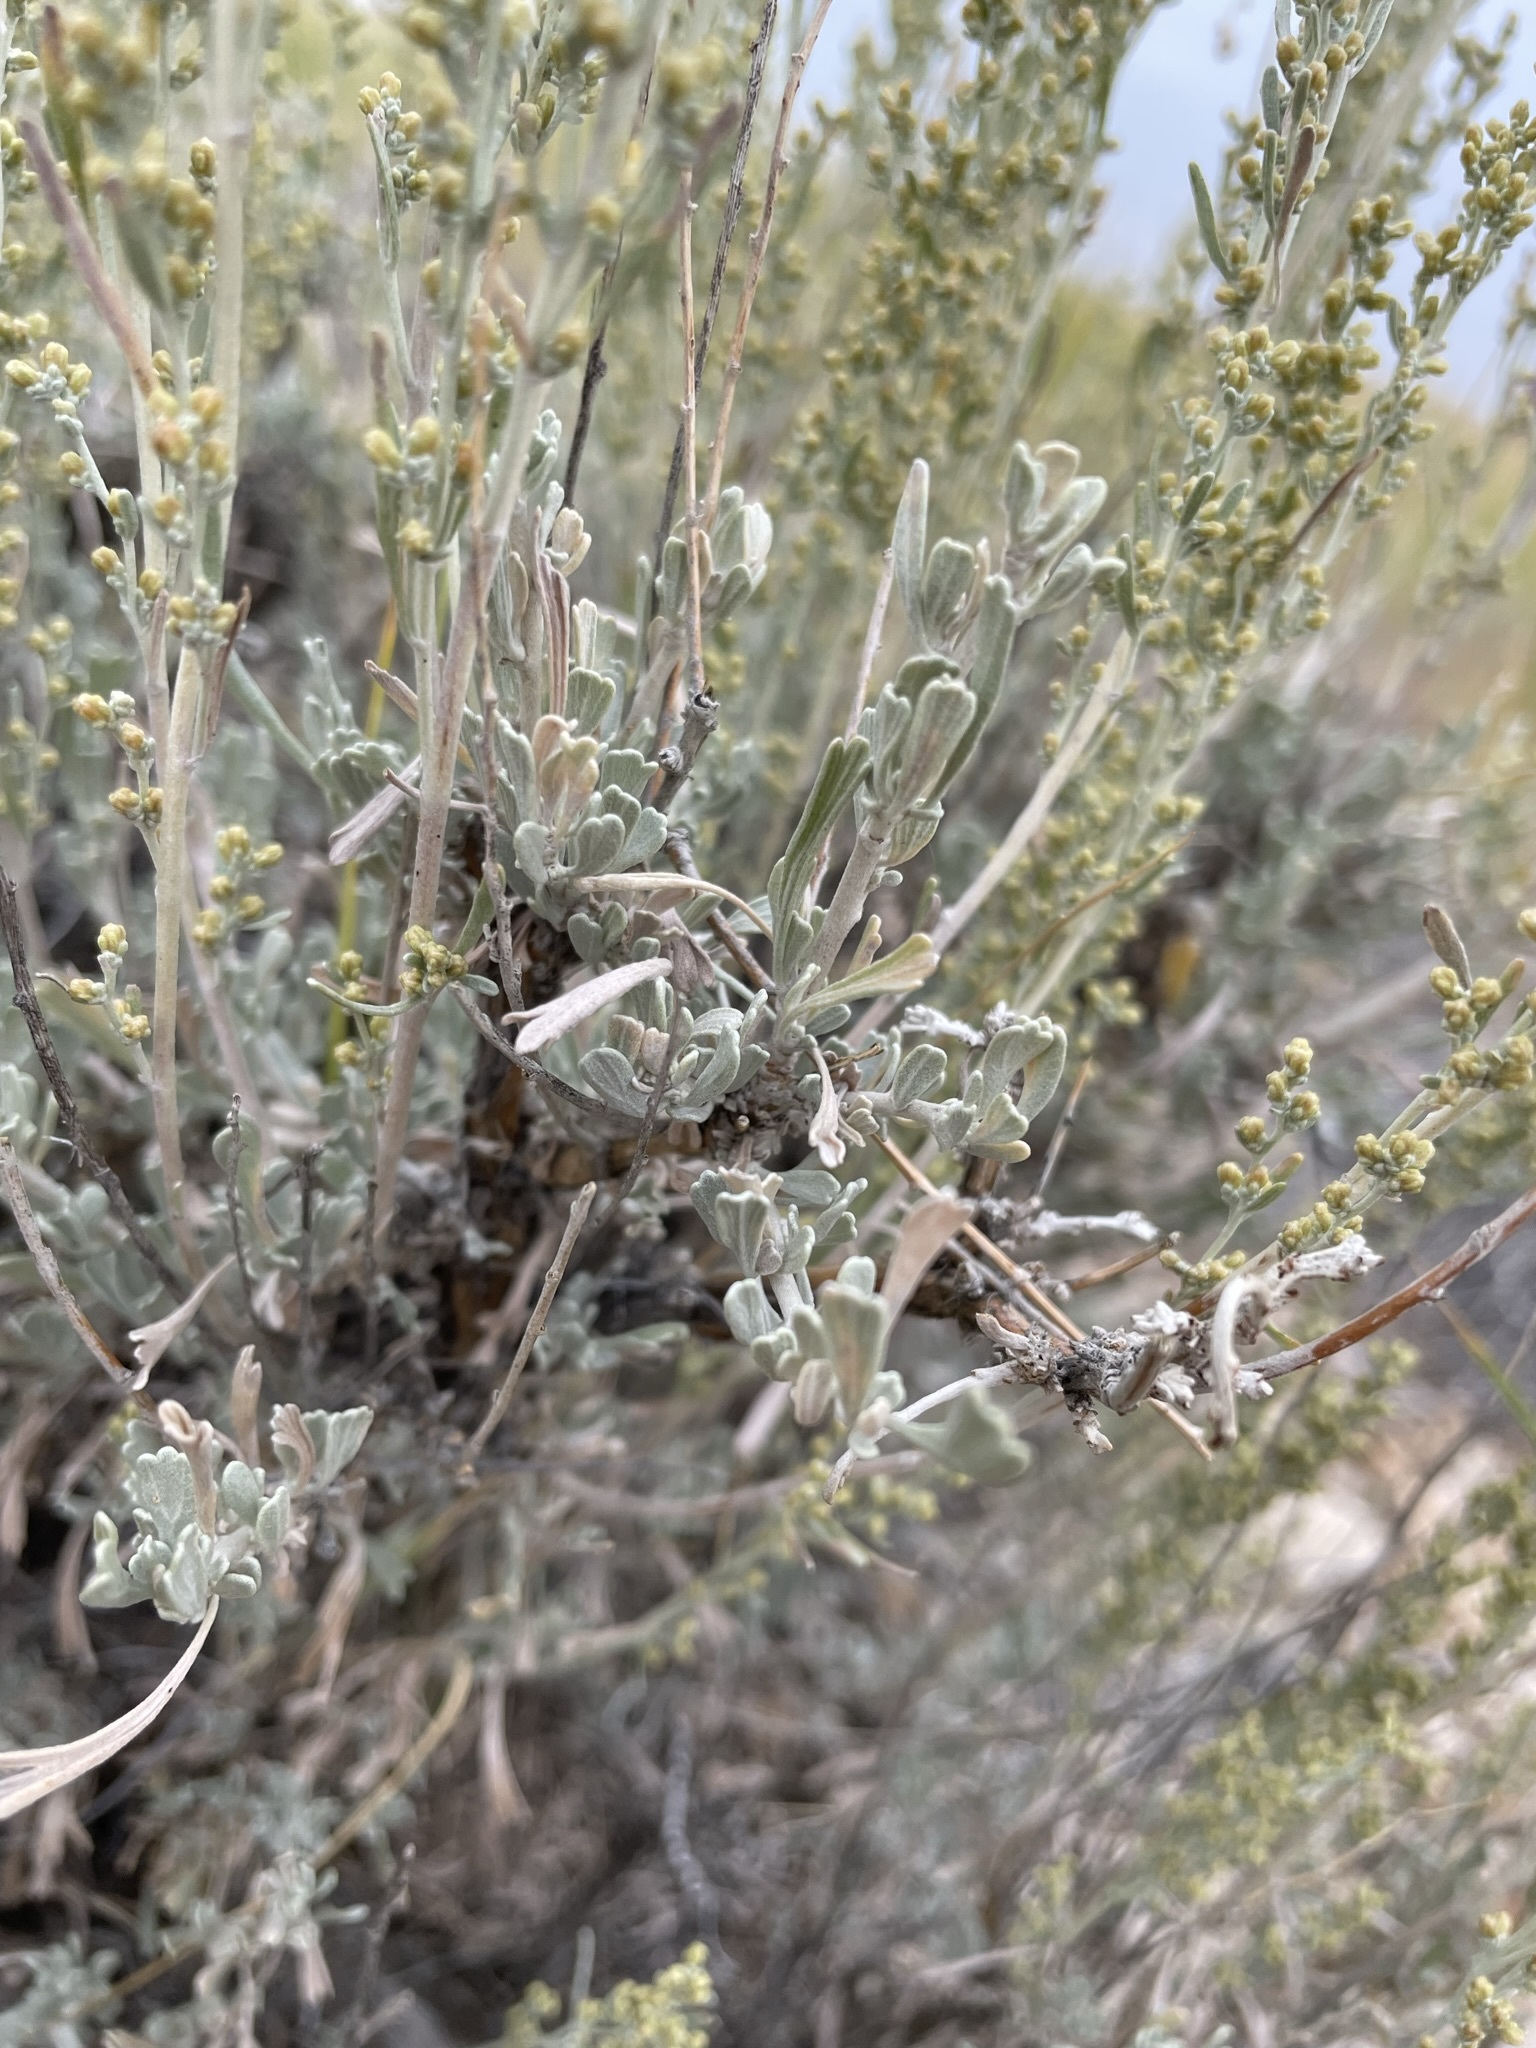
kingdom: Plantae
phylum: Tracheophyta
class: Magnoliopsida
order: Asterales
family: Asteraceae
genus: Artemisia
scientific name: Artemisia tridentata
